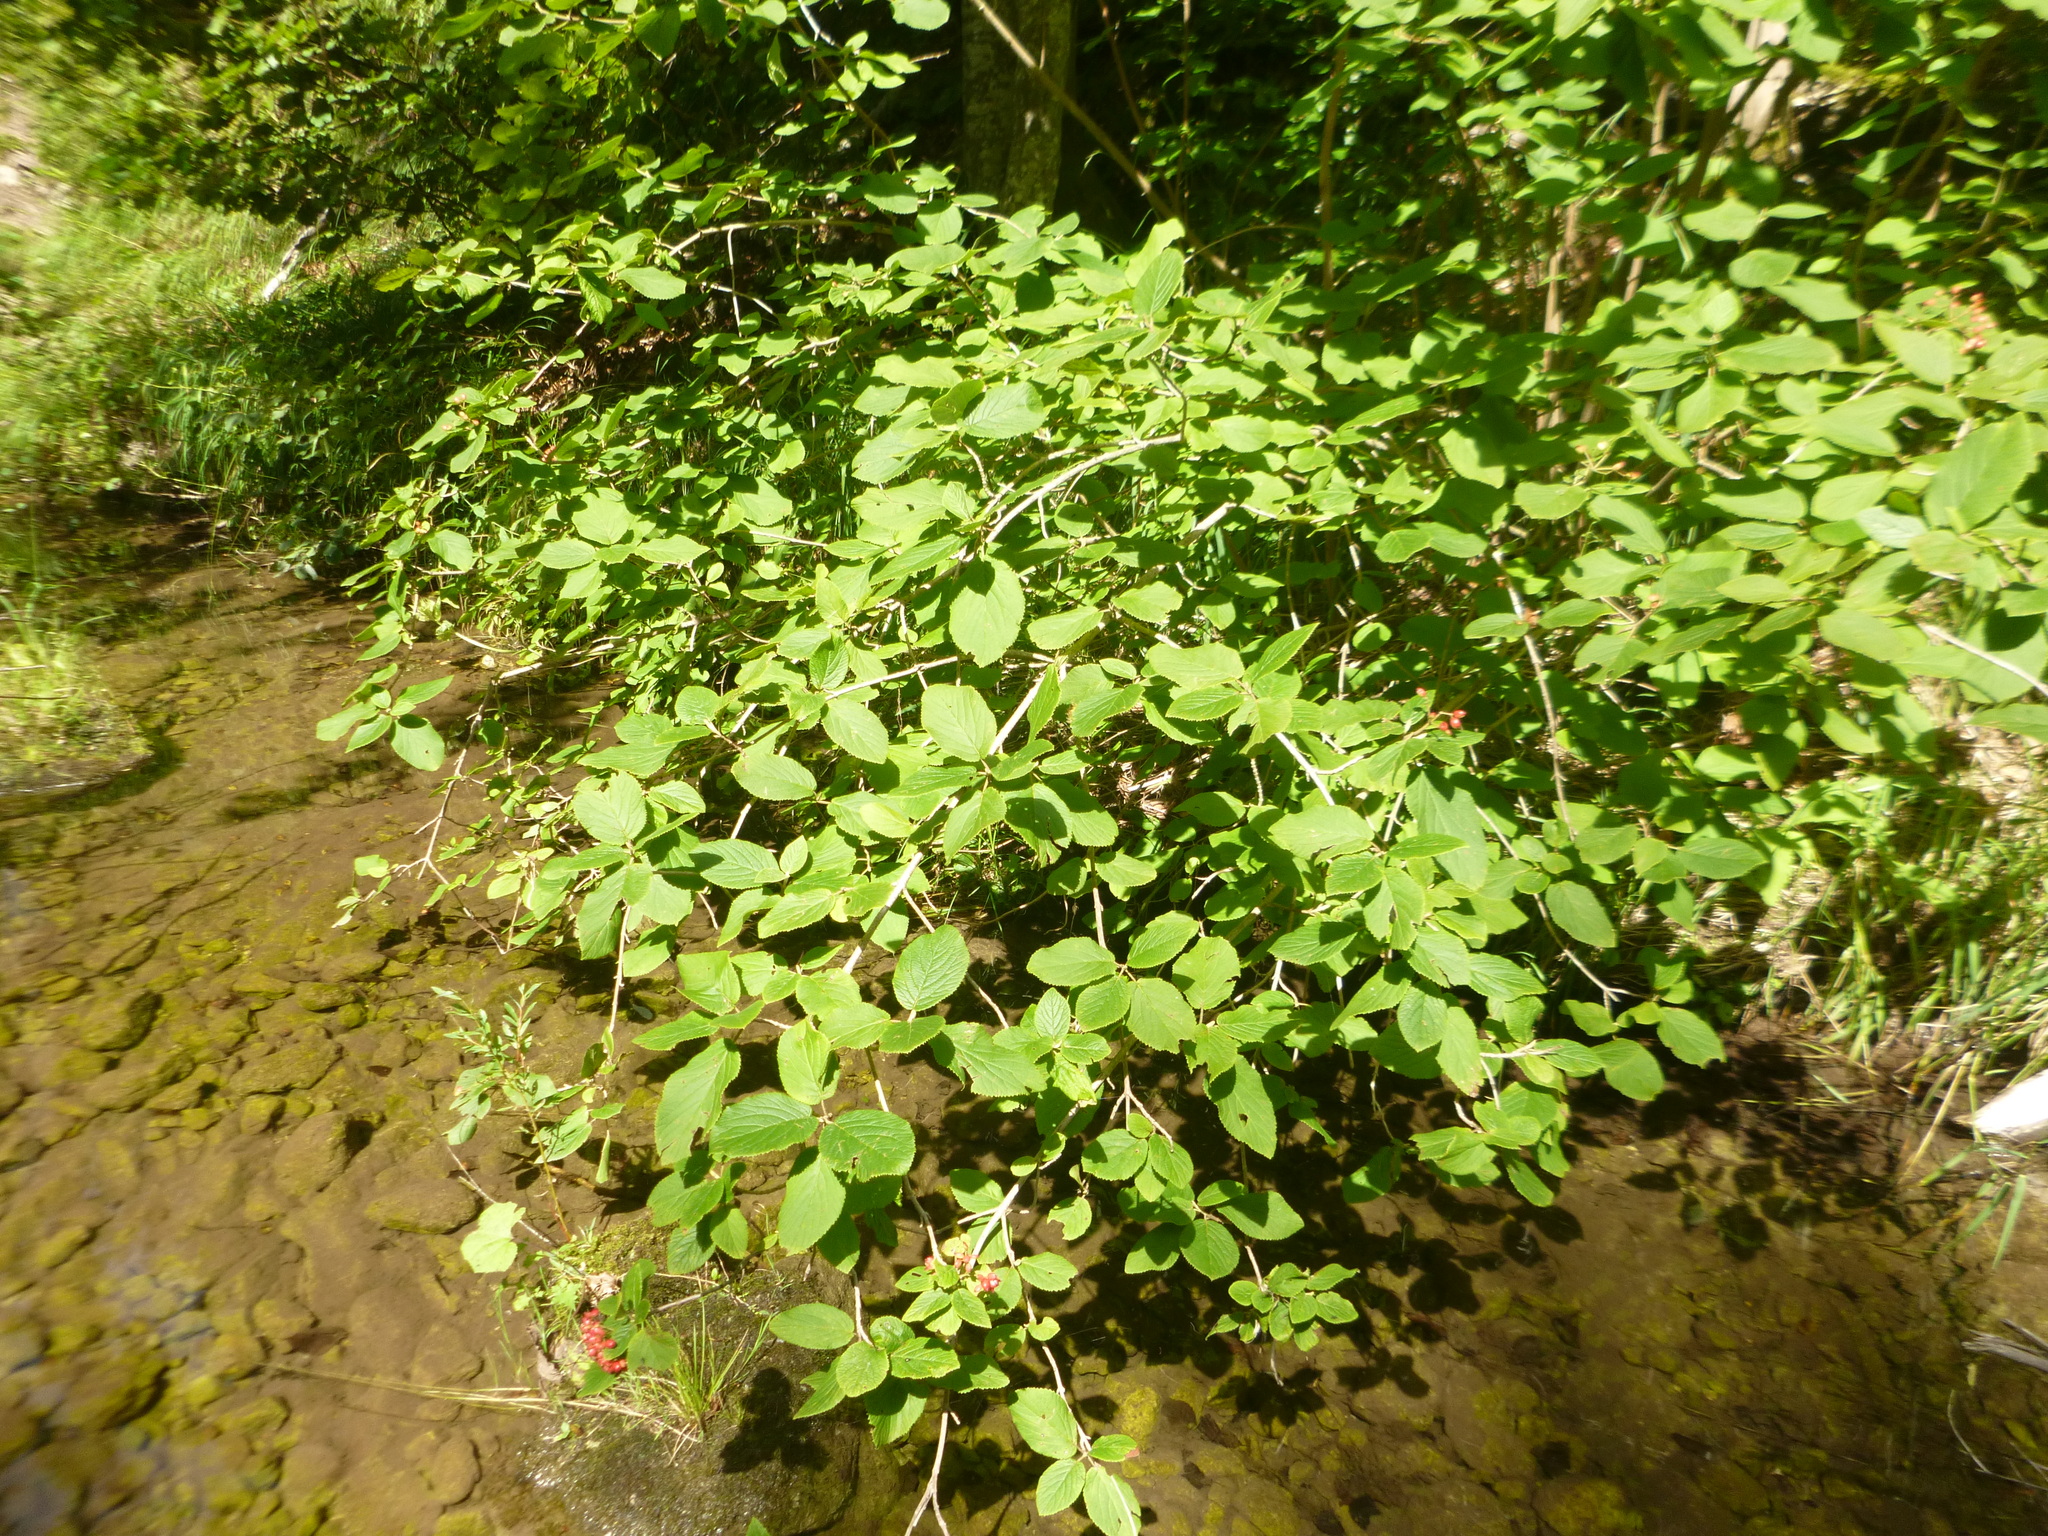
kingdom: Plantae
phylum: Tracheophyta
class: Magnoliopsida
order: Dipsacales
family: Viburnaceae
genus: Viburnum
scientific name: Viburnum lantana
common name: Wayfaring tree
